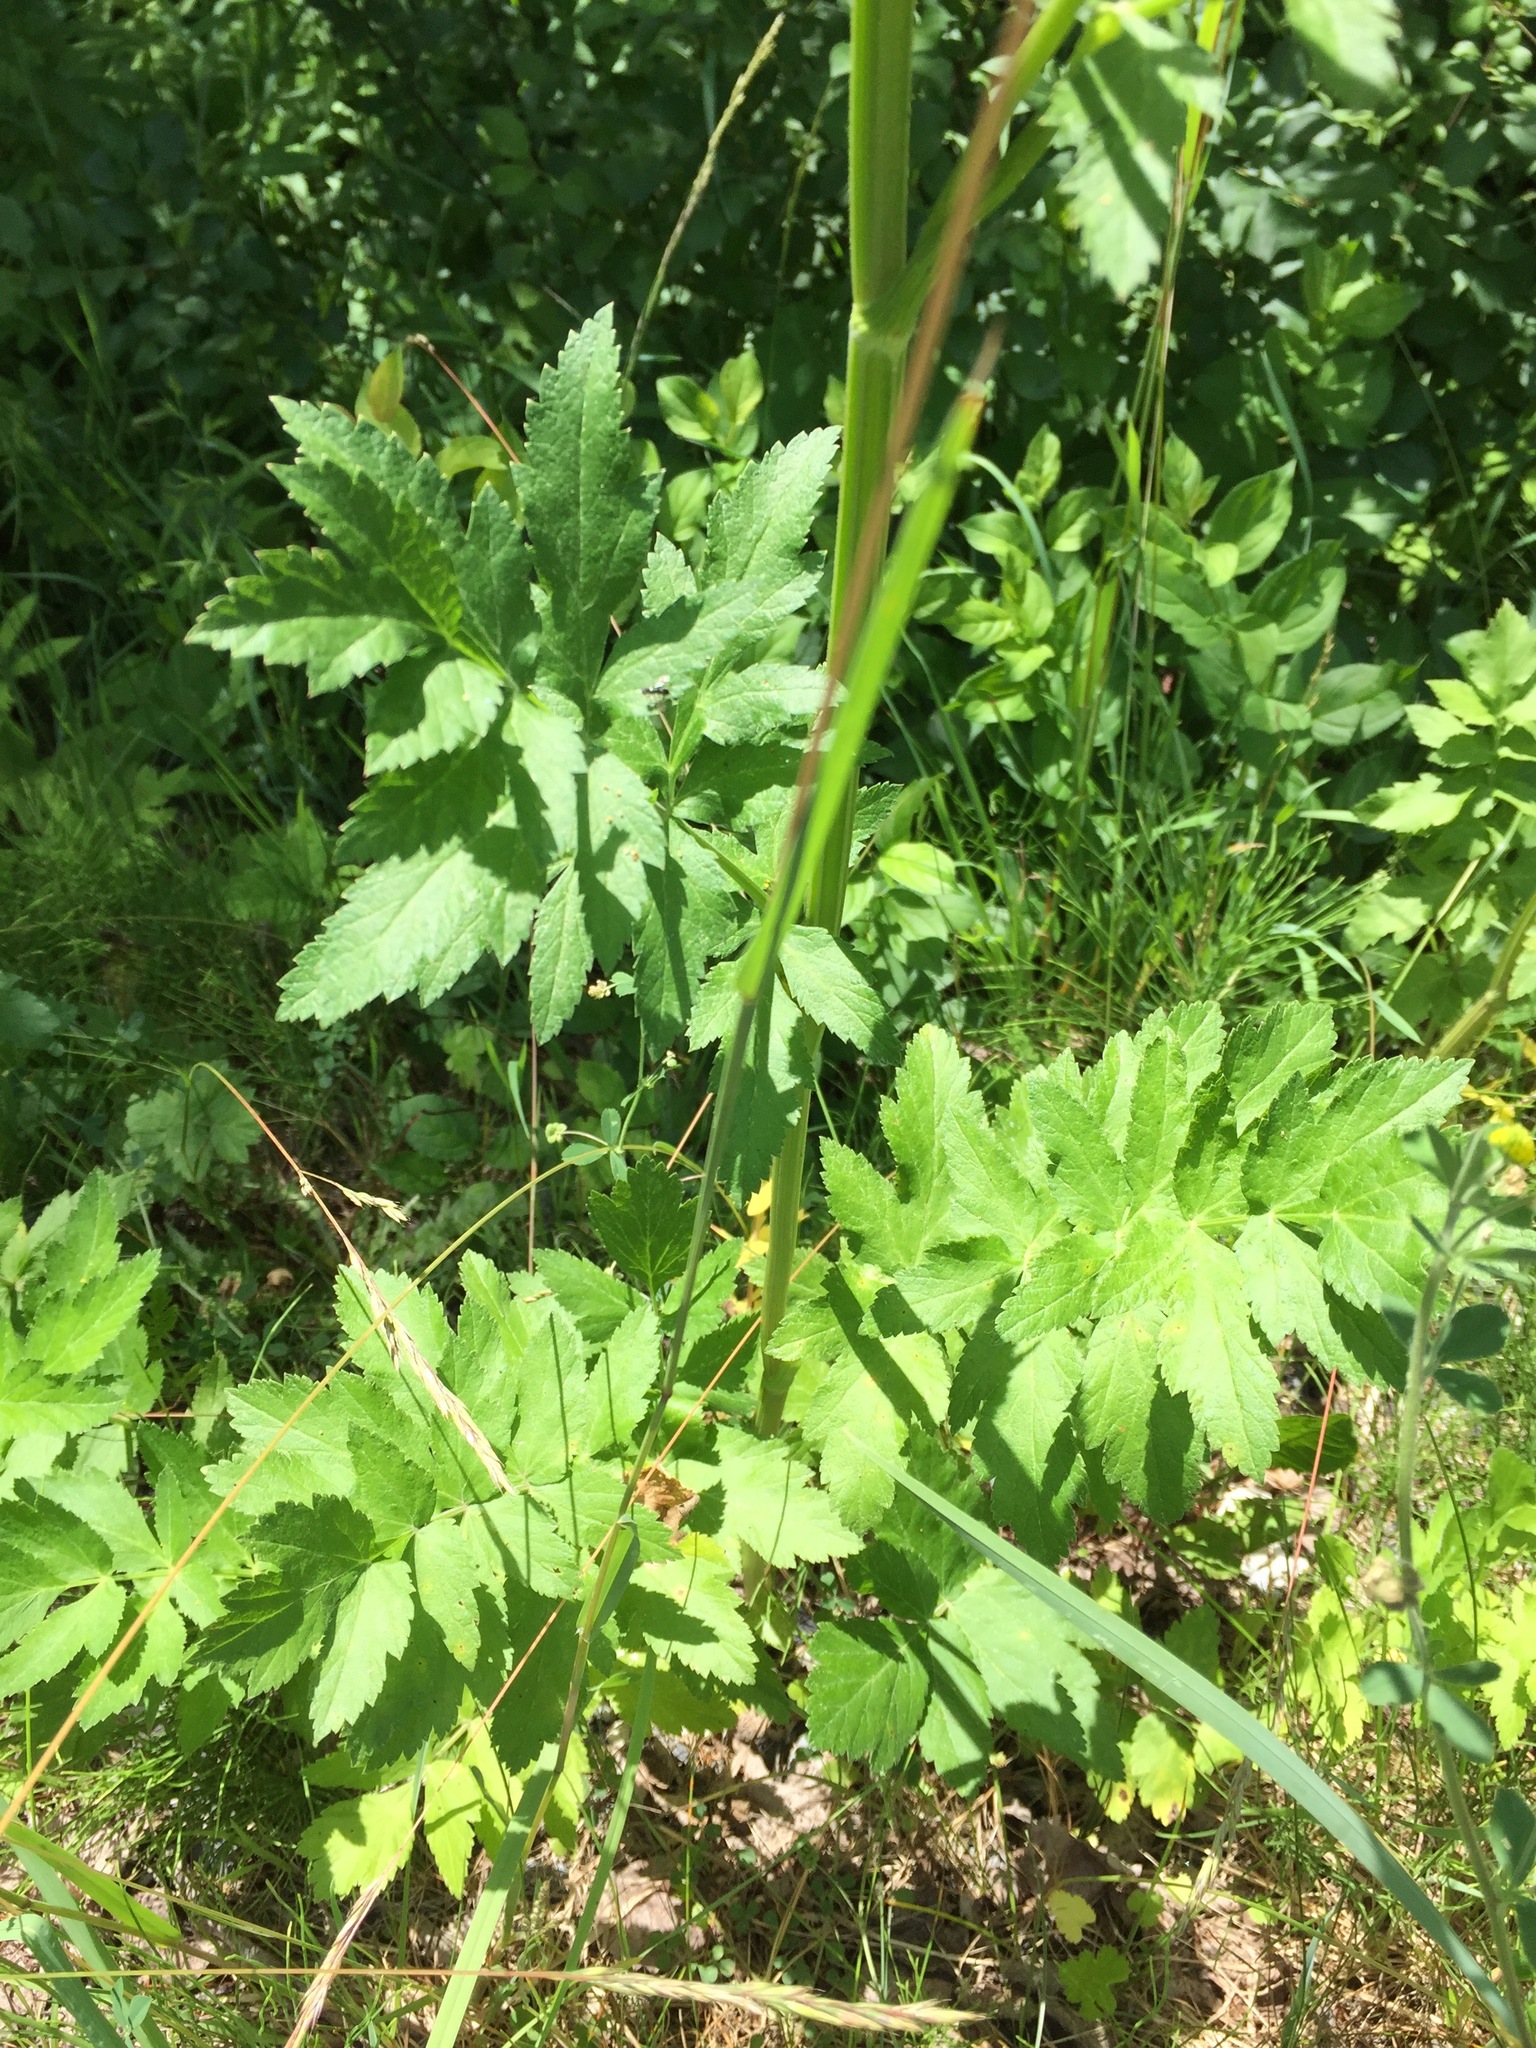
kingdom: Plantae
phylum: Tracheophyta
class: Magnoliopsida
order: Apiales
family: Apiaceae
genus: Pastinaca
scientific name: Pastinaca sativa
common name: Wild parsnip
